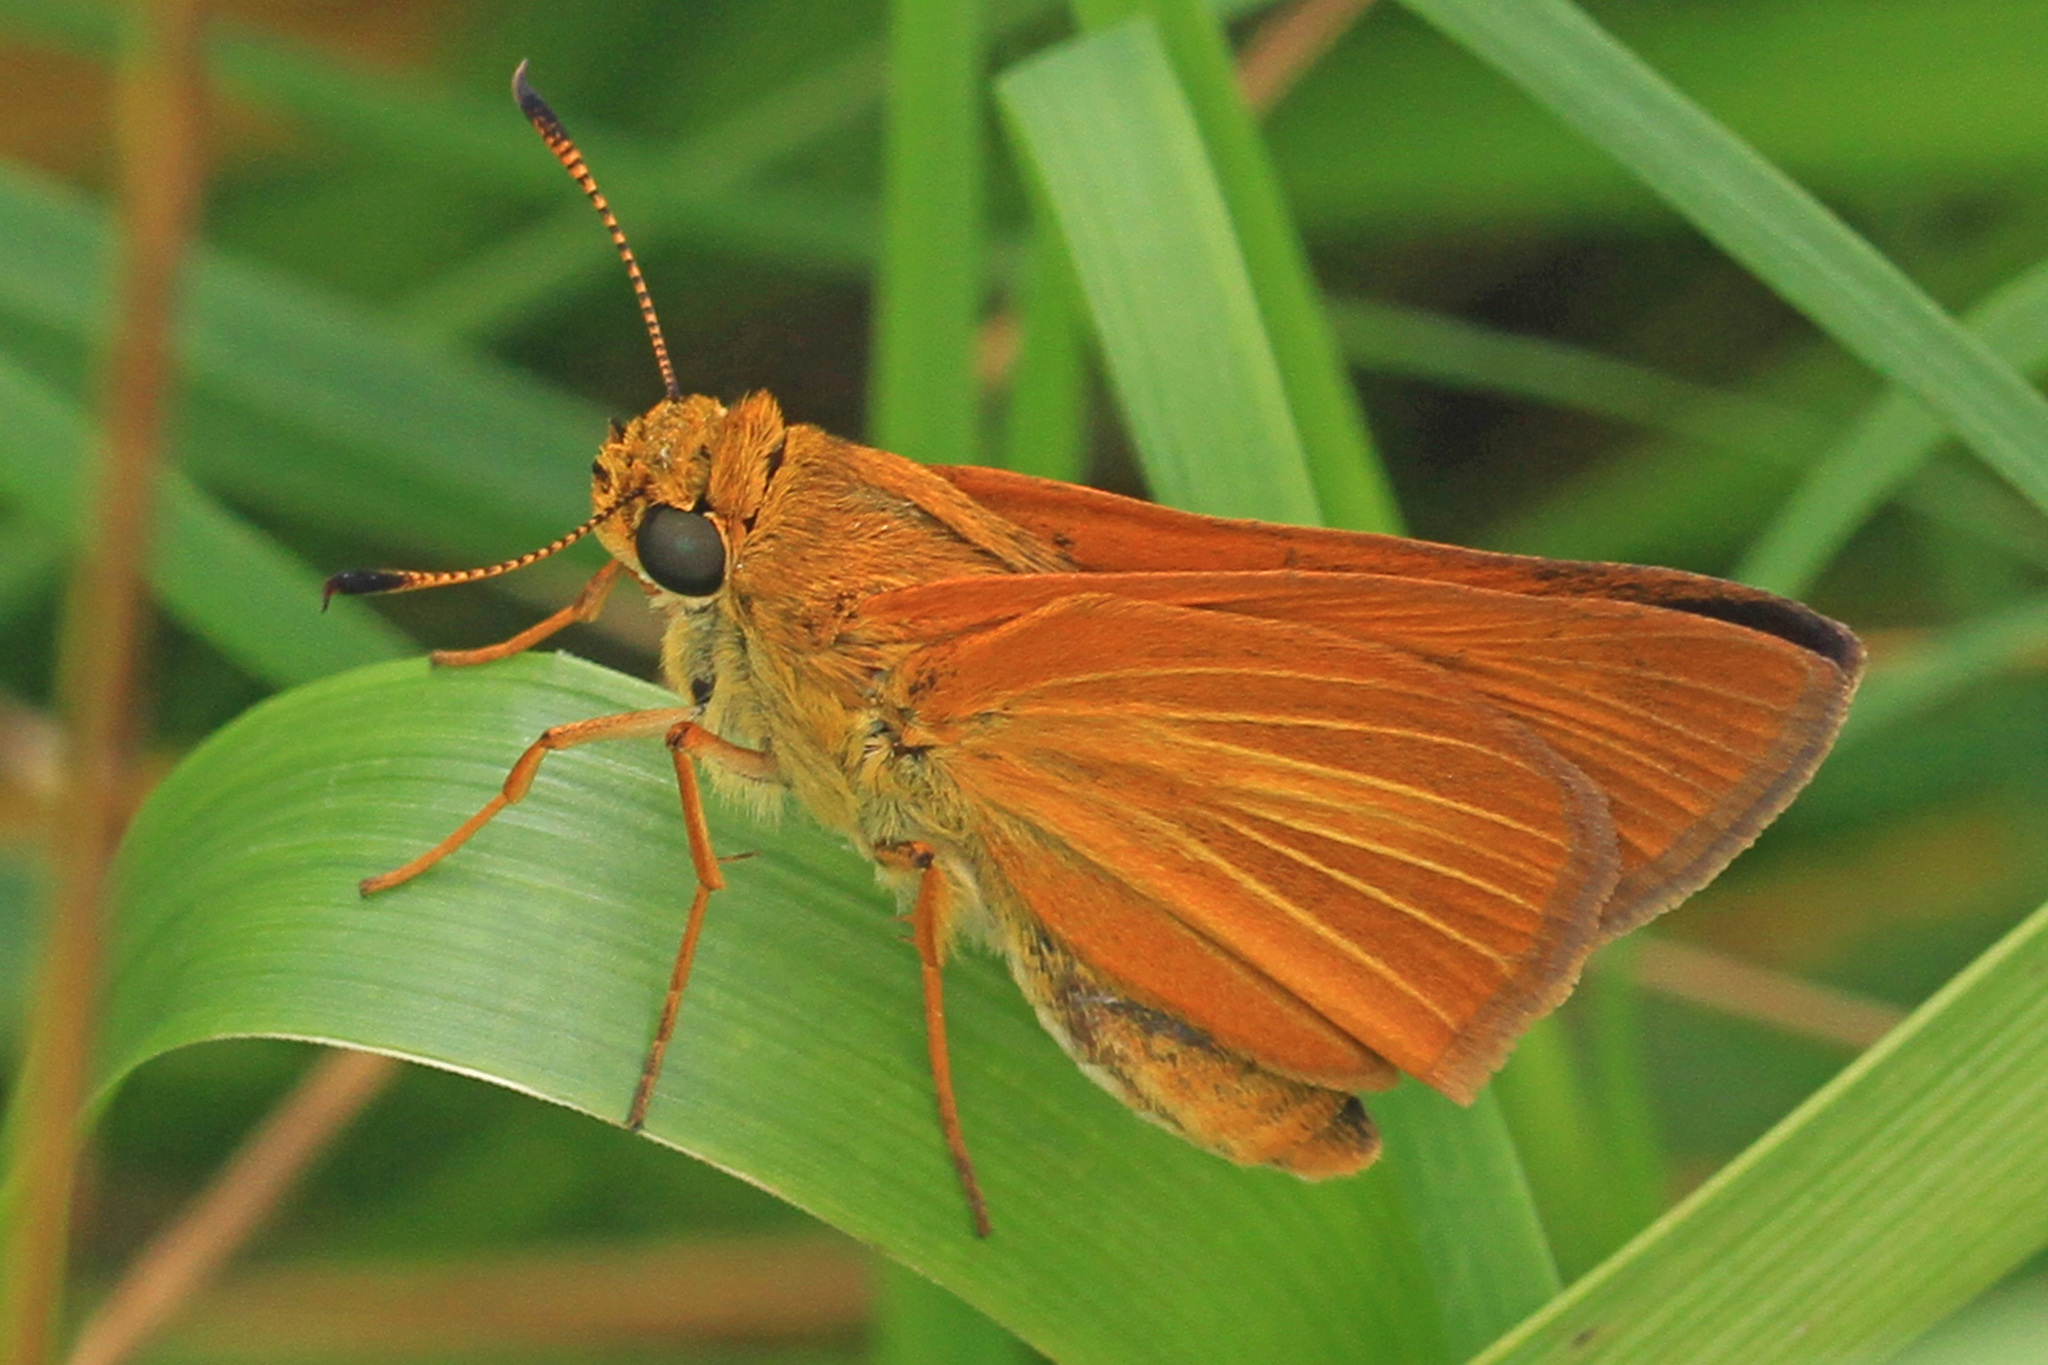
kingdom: Animalia
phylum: Arthropoda
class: Insecta
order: Lepidoptera
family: Hesperiidae
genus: Euphyes
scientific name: Euphyes dion
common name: Dion skipper
